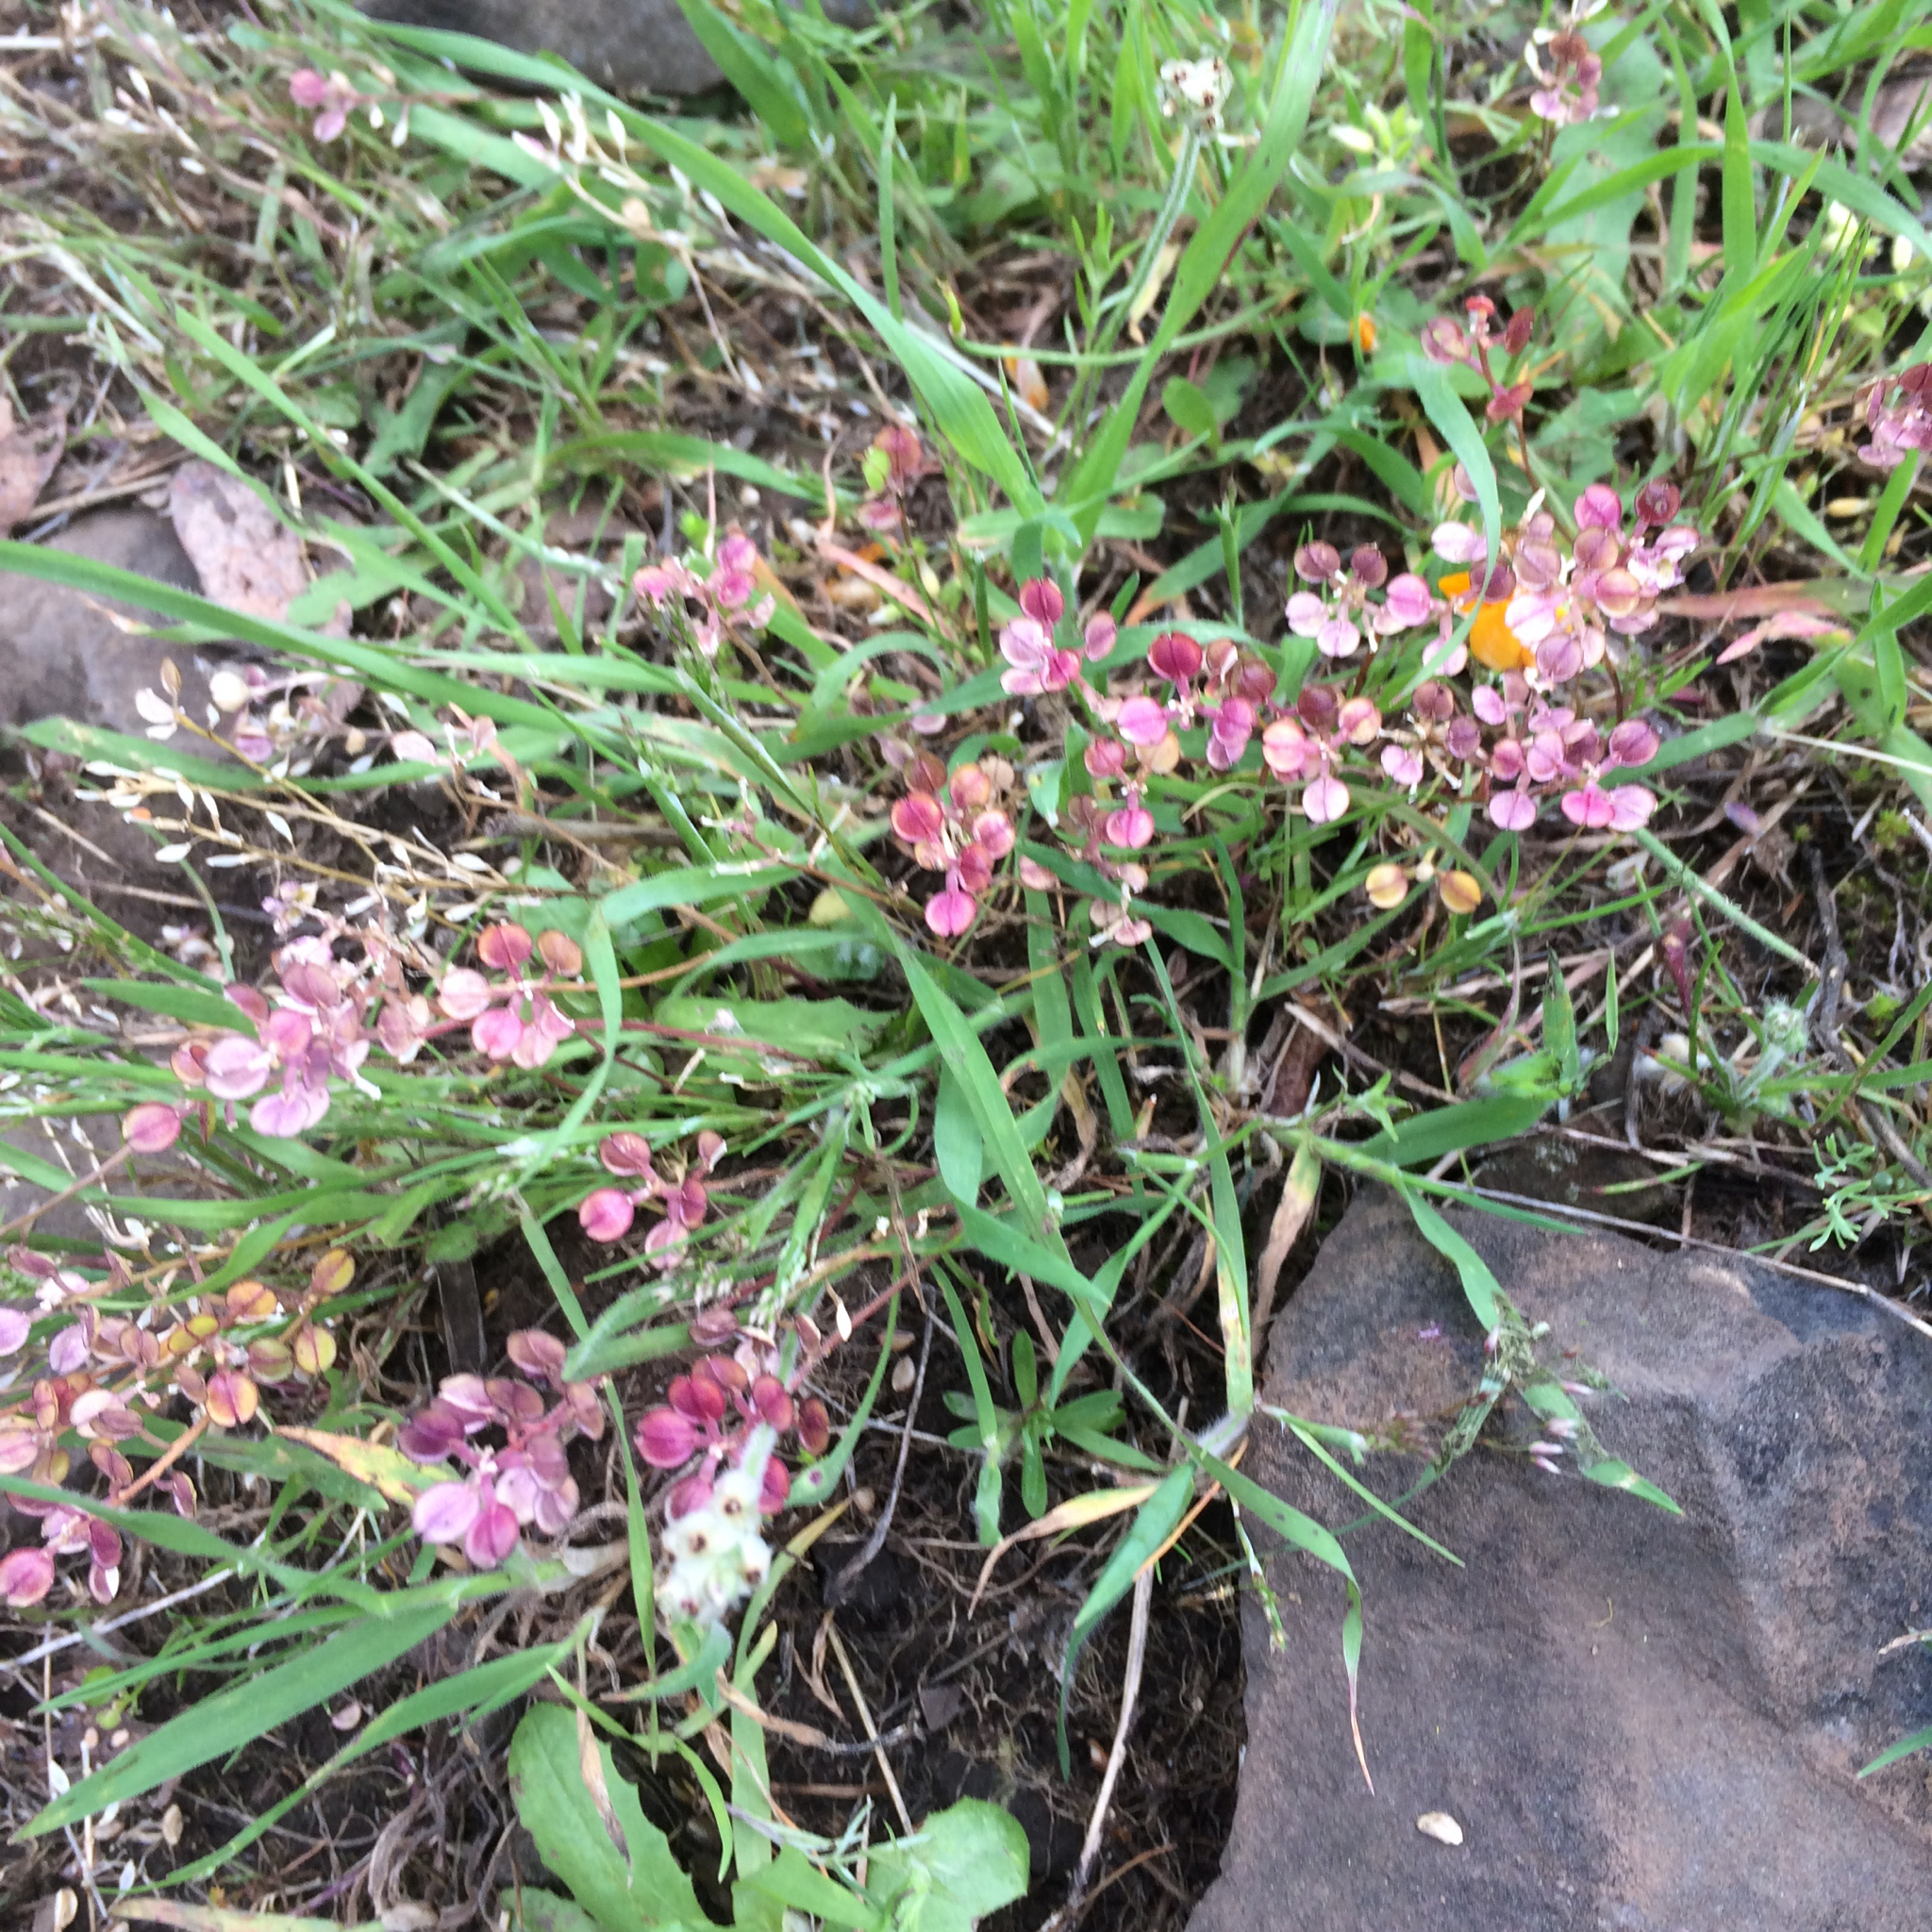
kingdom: Plantae
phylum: Tracheophyta
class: Magnoliopsida
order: Brassicales
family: Brassicaceae
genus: Lepidium
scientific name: Lepidium nitidum
